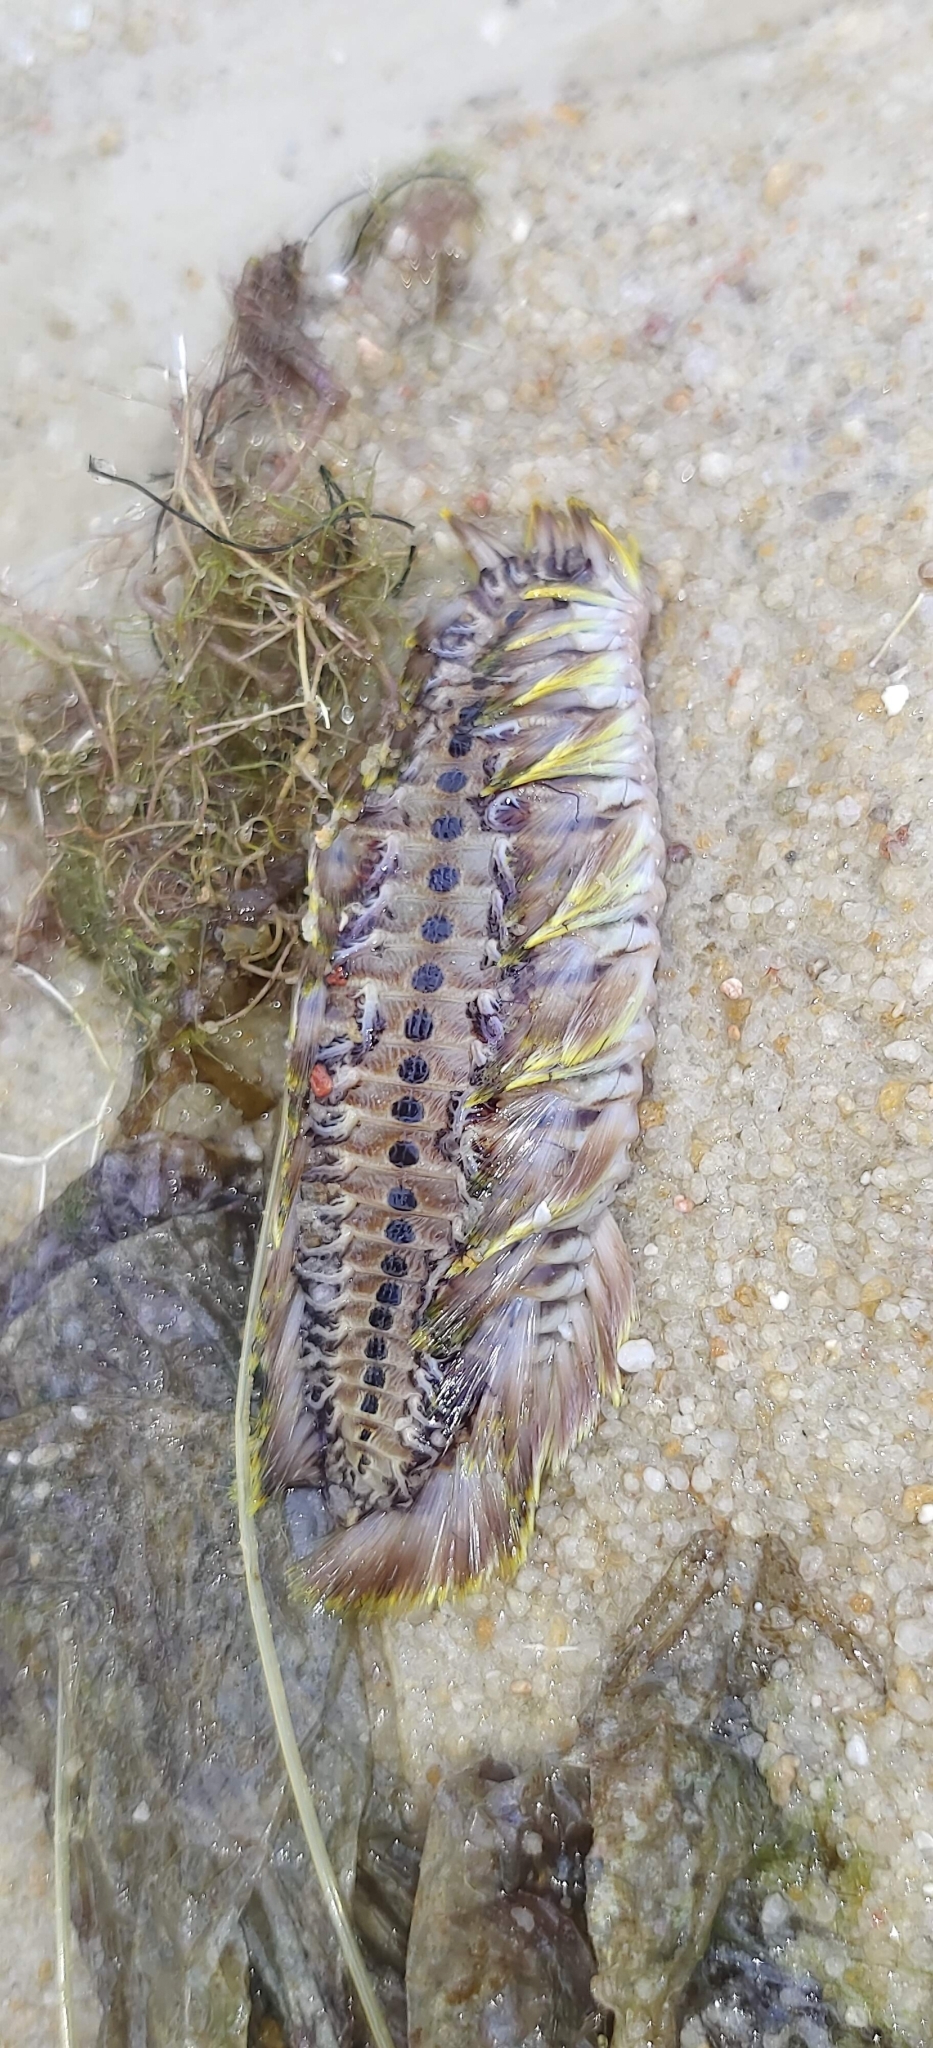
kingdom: Animalia
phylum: Annelida
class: Polychaeta
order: Amphinomida
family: Amphinomidae
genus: Chloeia
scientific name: Chloeia flava
